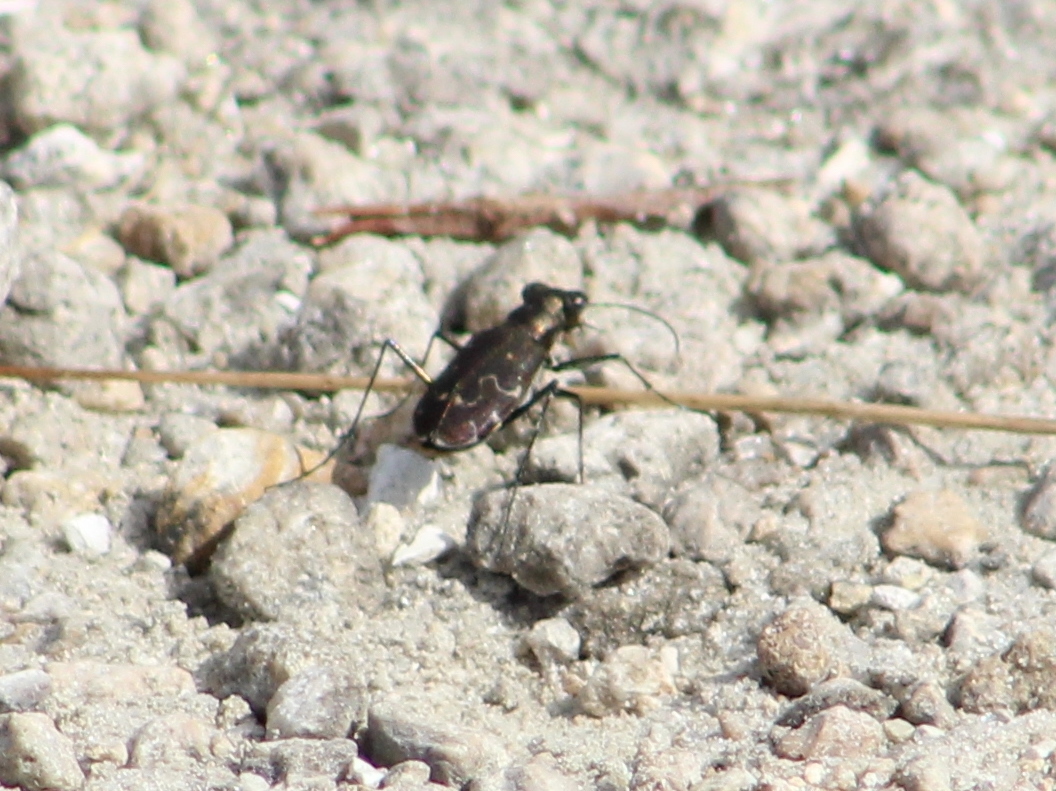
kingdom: Animalia
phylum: Arthropoda
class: Insecta
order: Coleoptera
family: Carabidae
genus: Cicindela
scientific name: Cicindela trifasciata
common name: Mudflat tiger beetle
